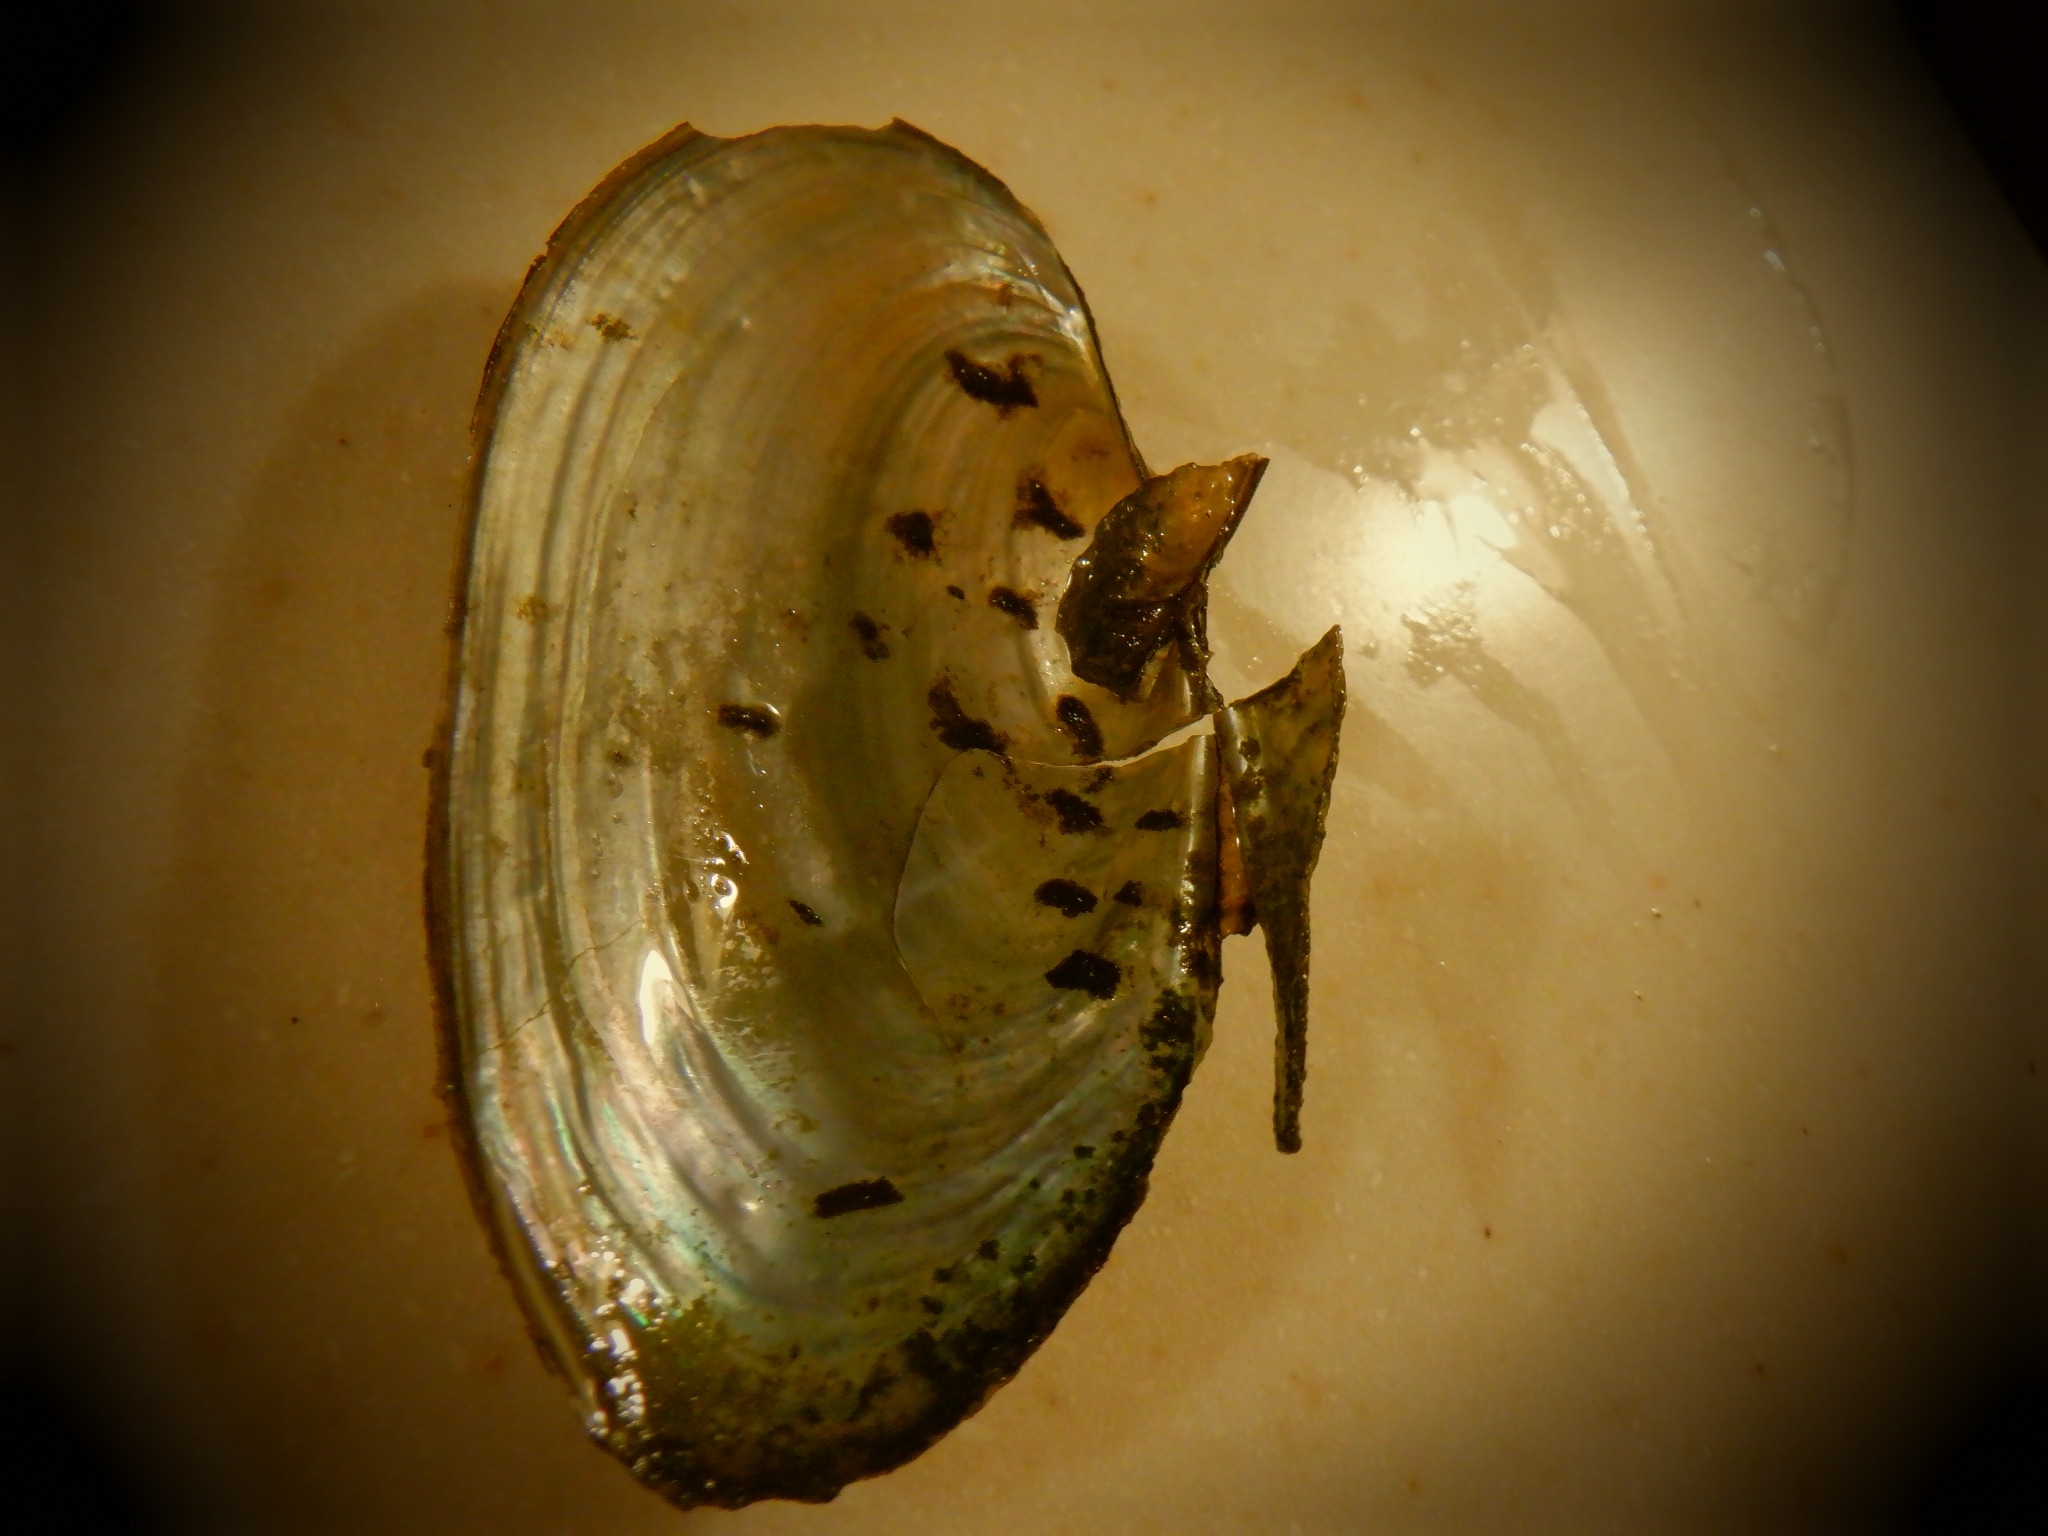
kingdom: Animalia
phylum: Mollusca
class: Bivalvia
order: Unionida
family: Unionidae
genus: Pyganodon
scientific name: Pyganodon grandis
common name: Giant floater
